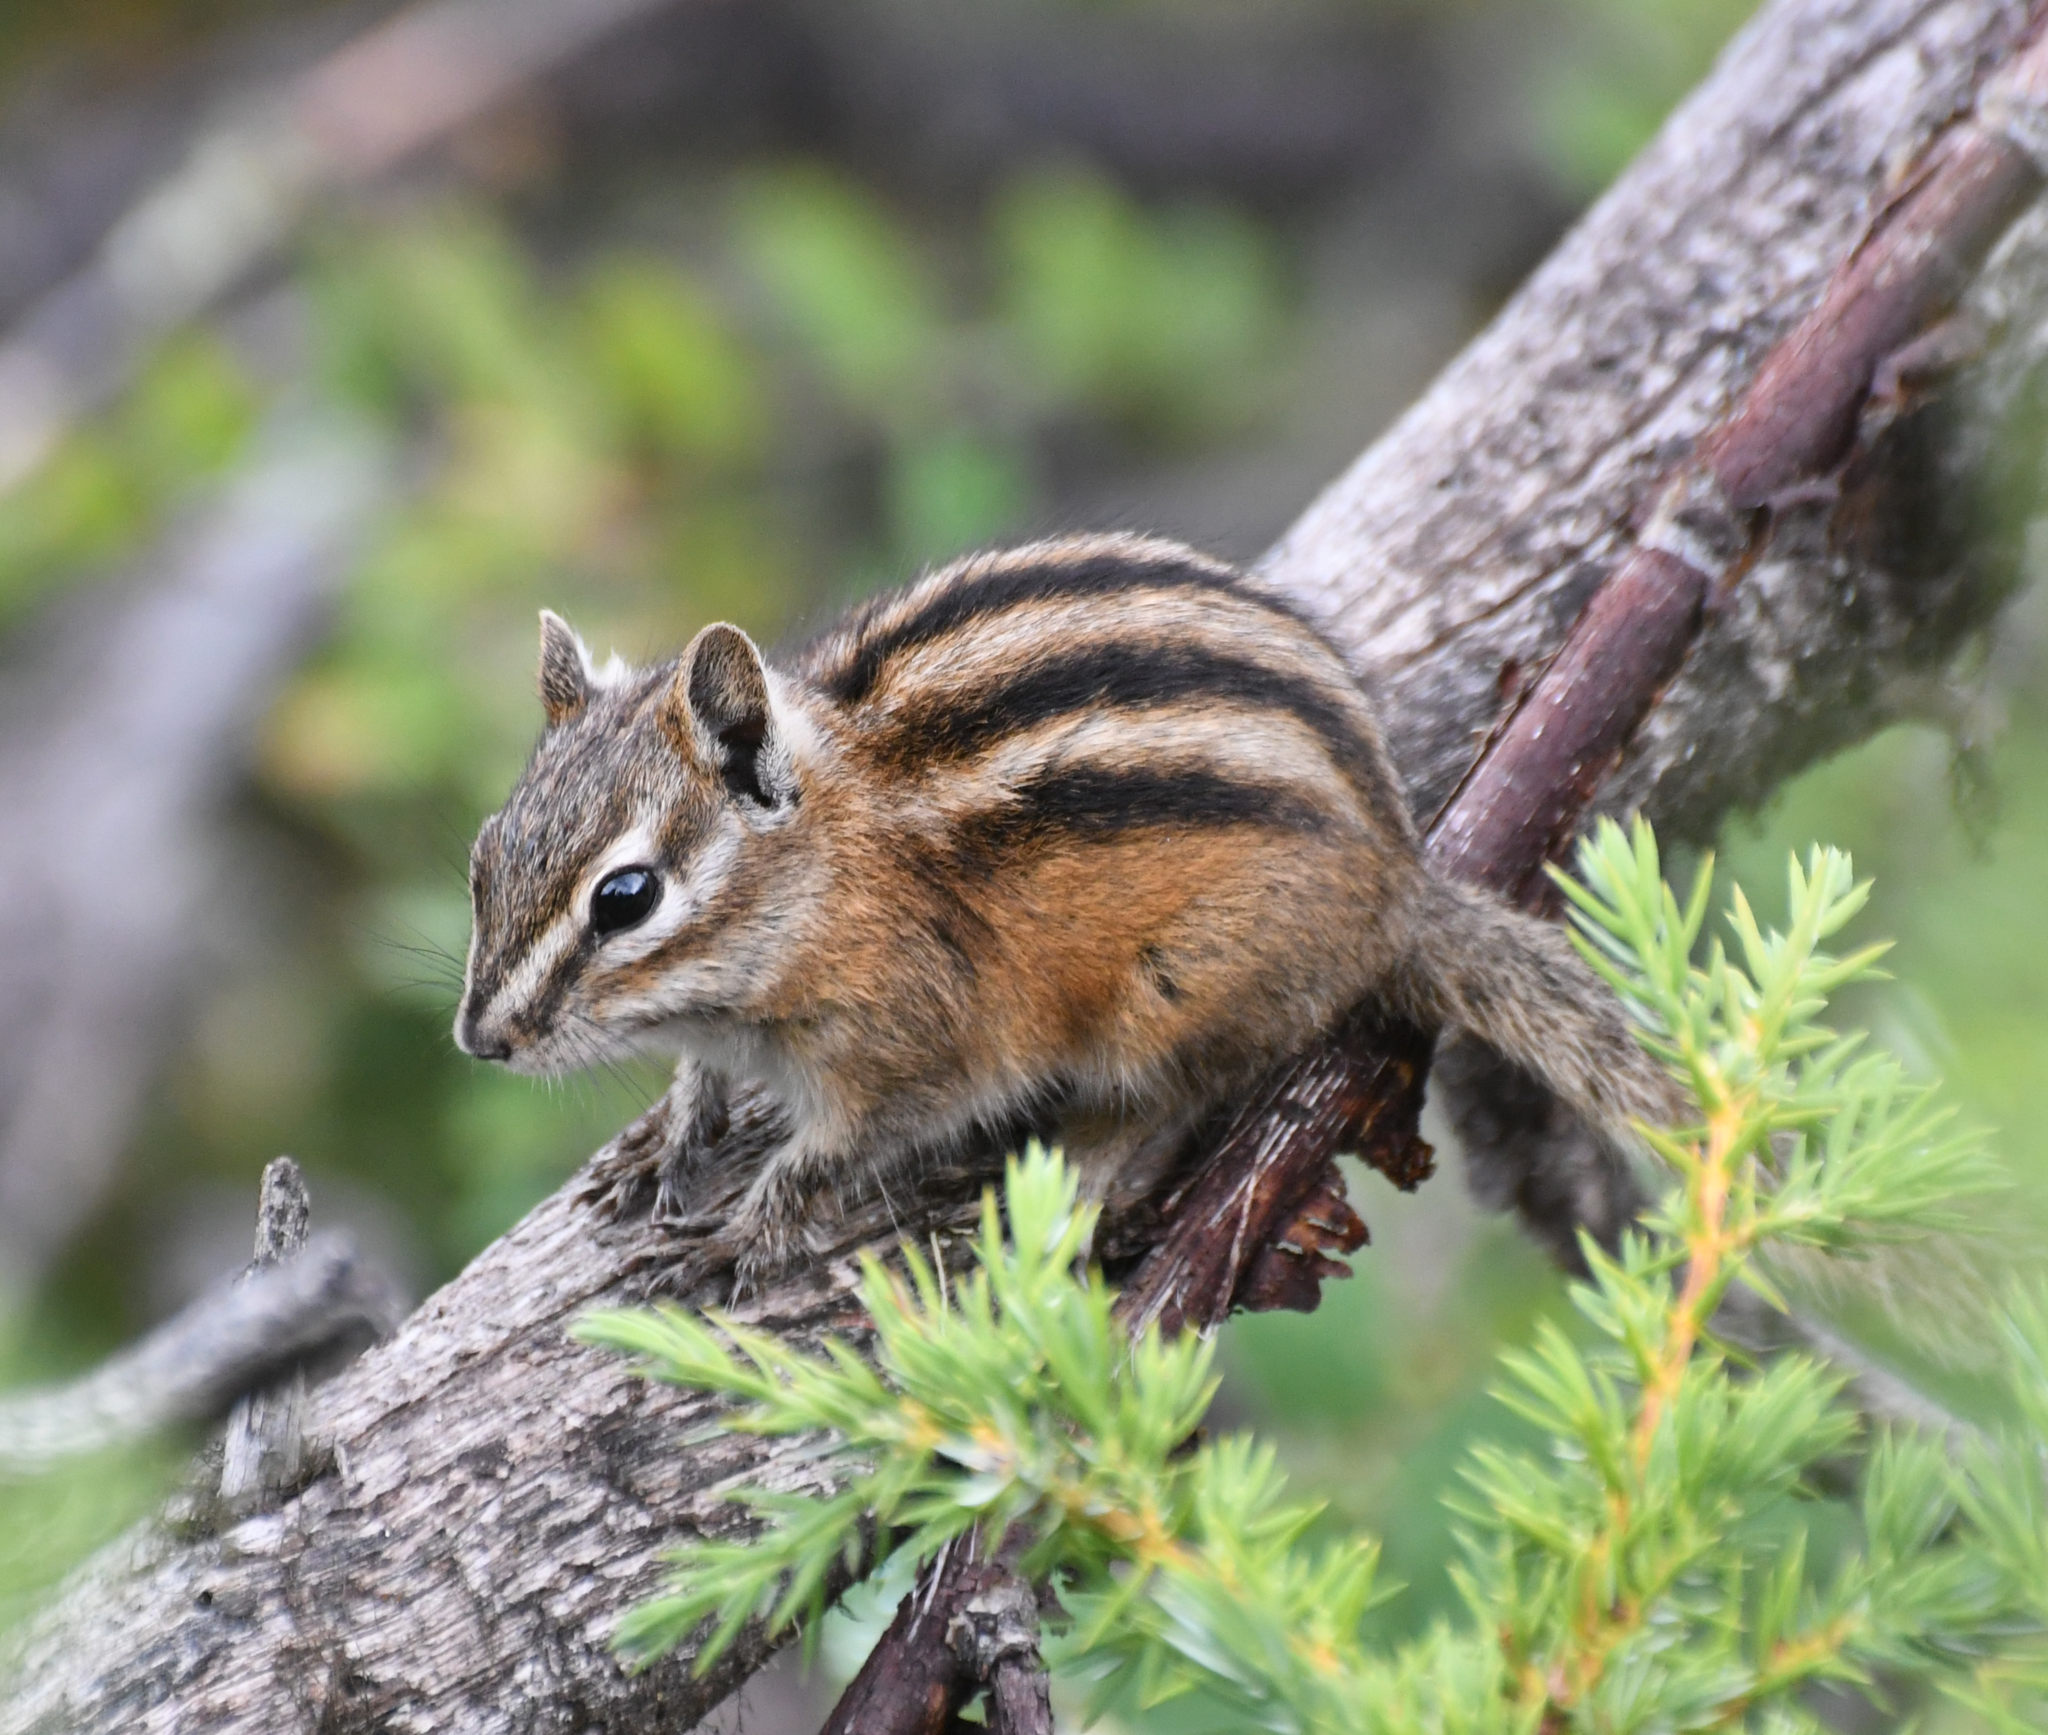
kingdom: Animalia
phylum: Chordata
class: Mammalia
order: Rodentia
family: Sciuridae
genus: Tamias
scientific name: Tamias minimus
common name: Least chipmunk
